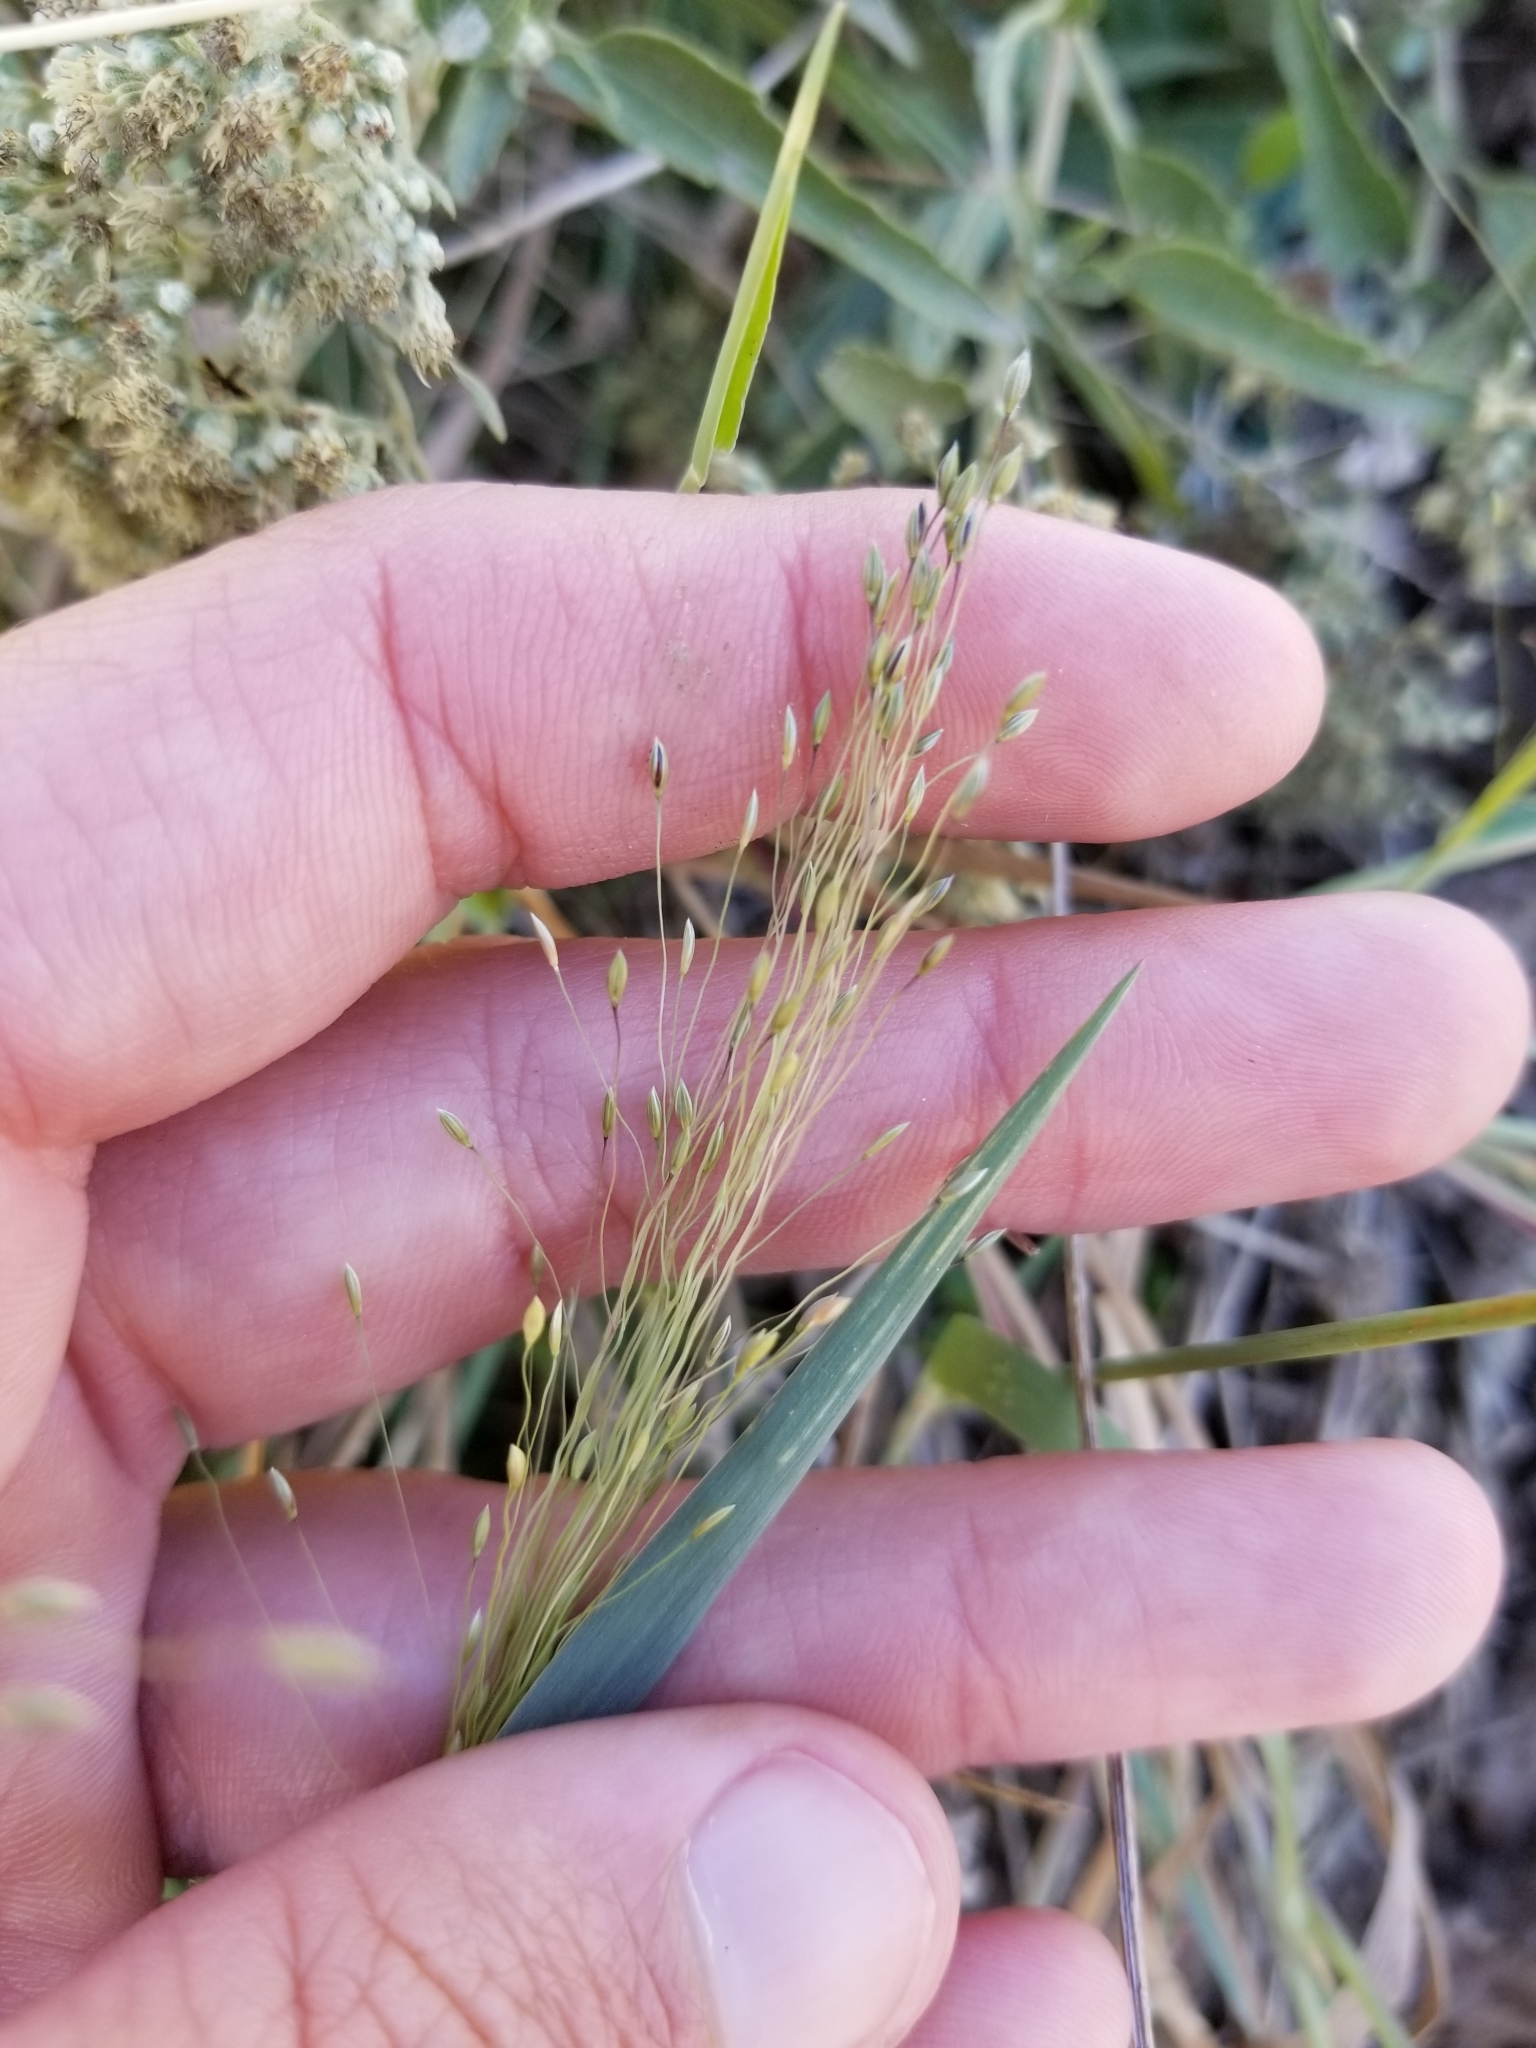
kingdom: Plantae
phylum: Tracheophyta
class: Liliopsida
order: Poales
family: Poaceae
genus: Digitaria
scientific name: Digitaria cognata
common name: Fall witchgrass
